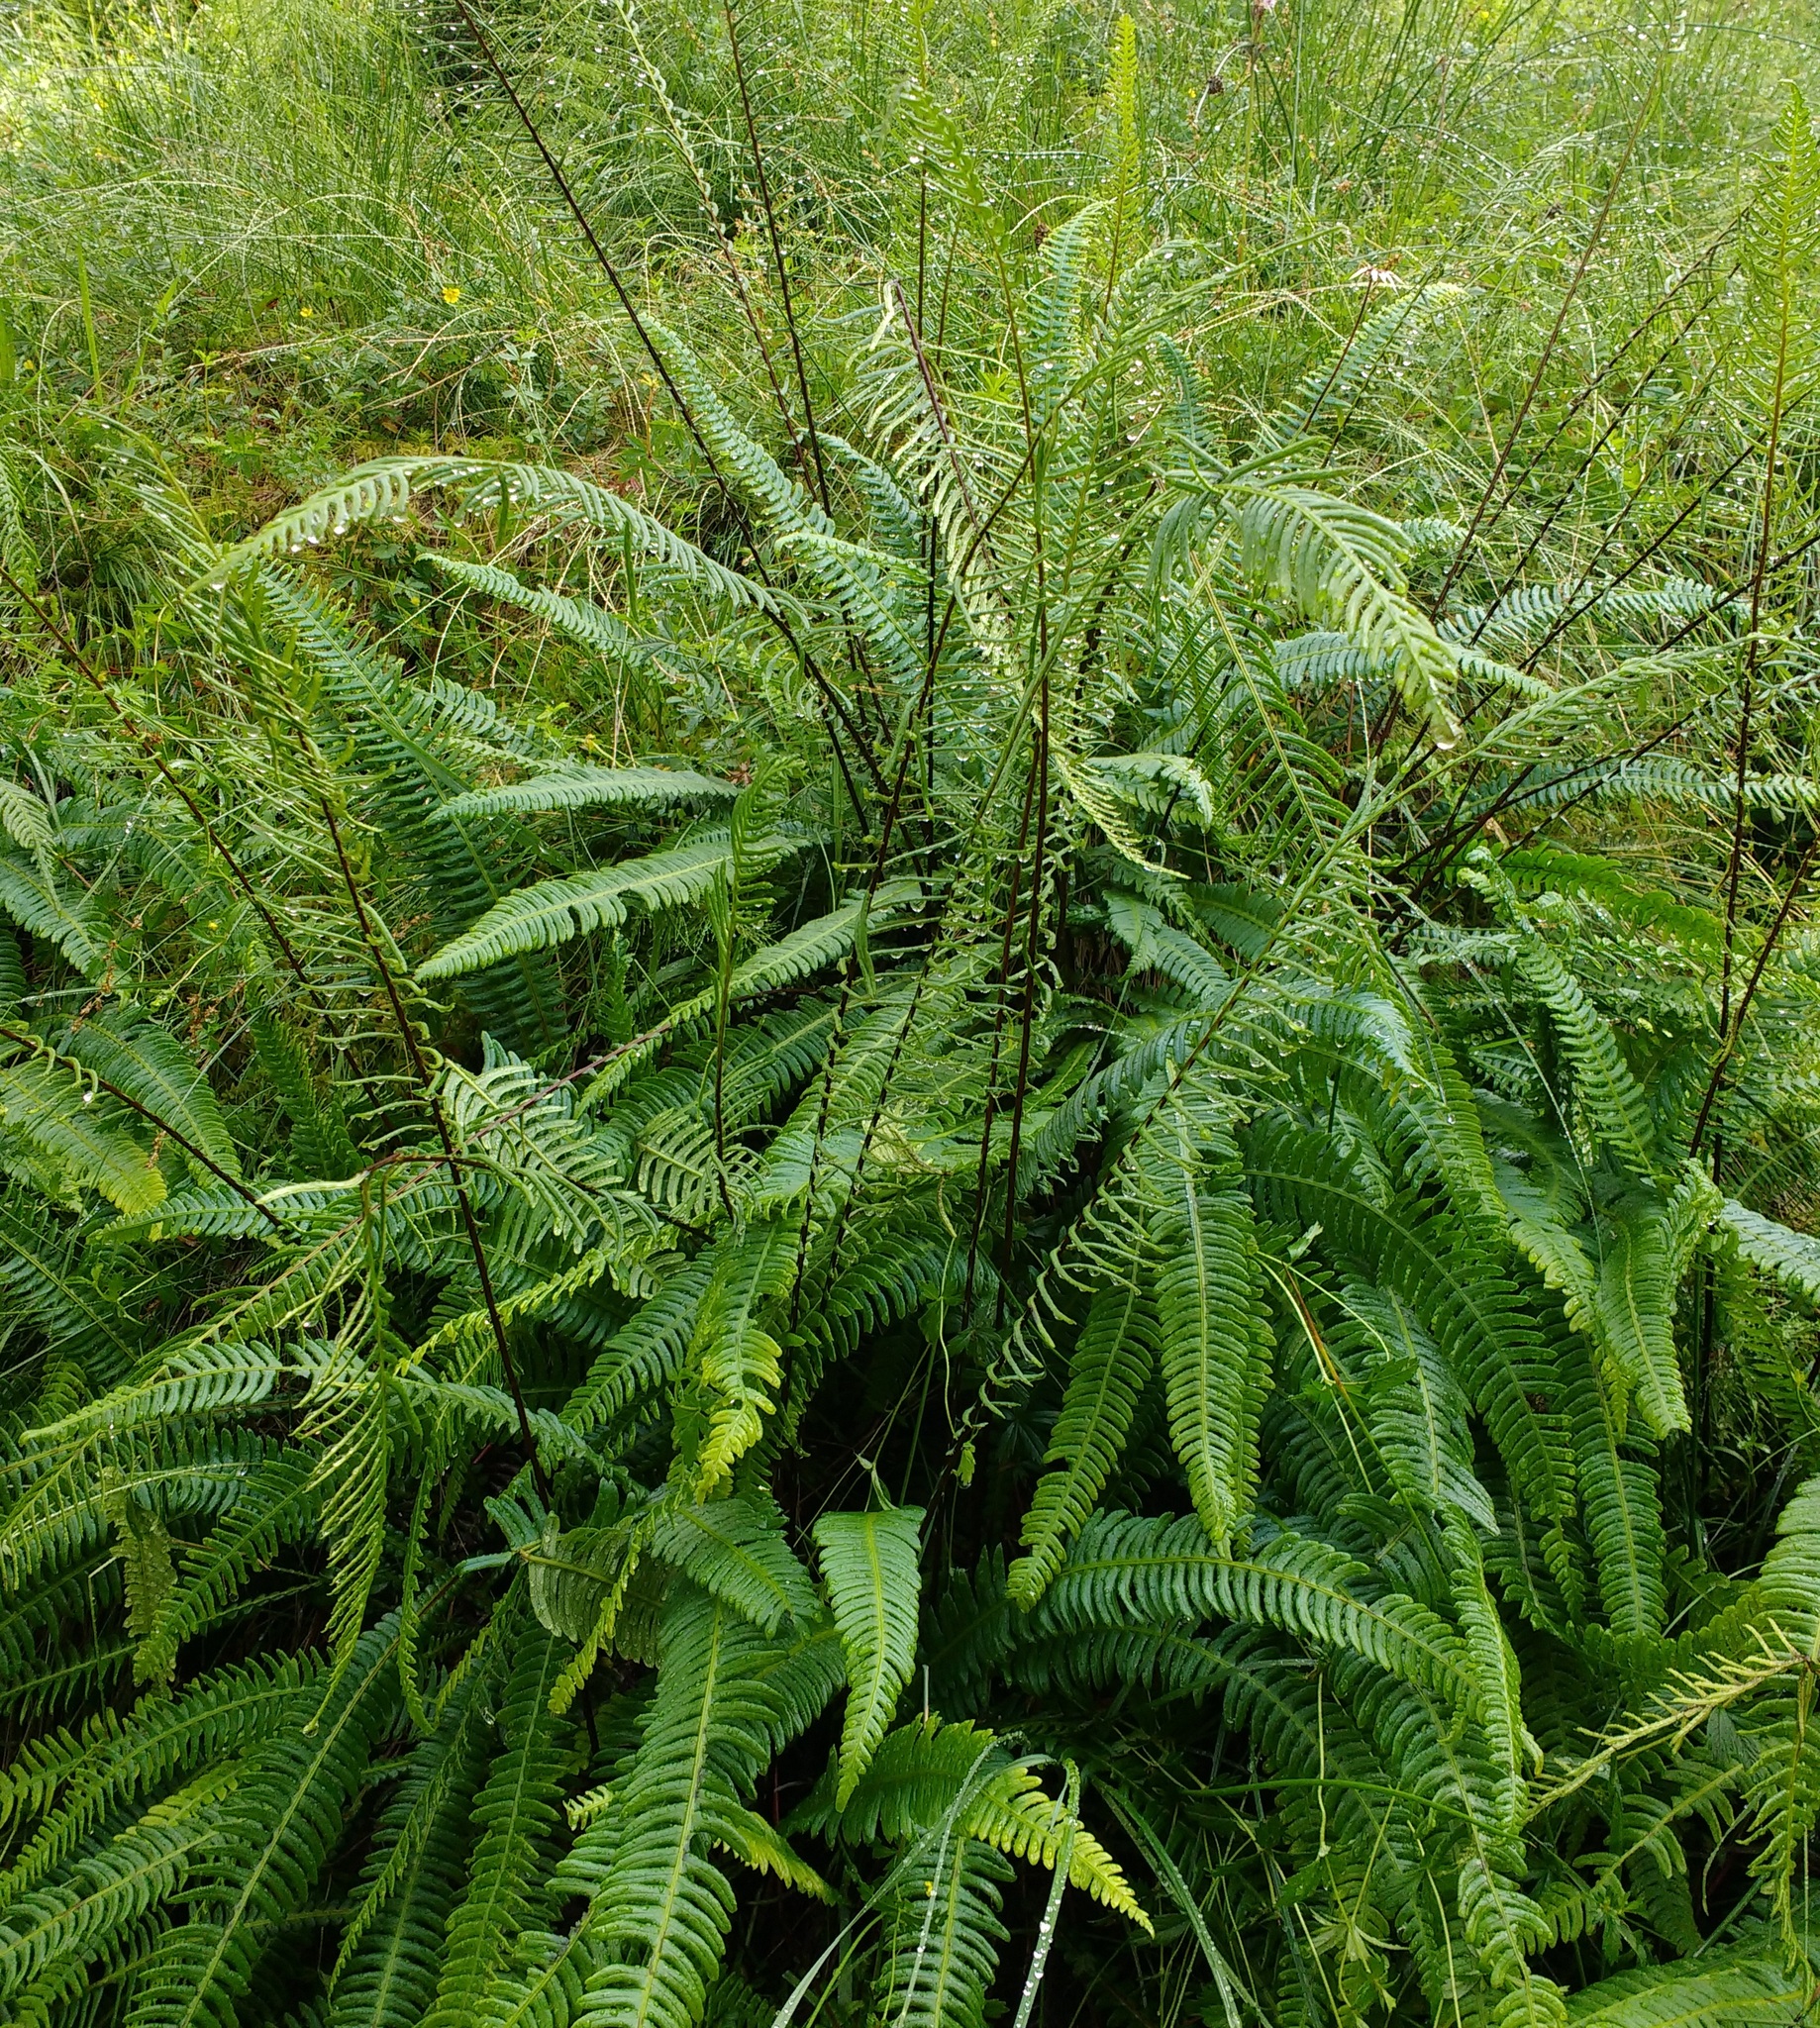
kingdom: Plantae
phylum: Tracheophyta
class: Polypodiopsida
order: Polypodiales
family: Blechnaceae
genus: Struthiopteris
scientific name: Struthiopteris spicant
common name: Deer fern
